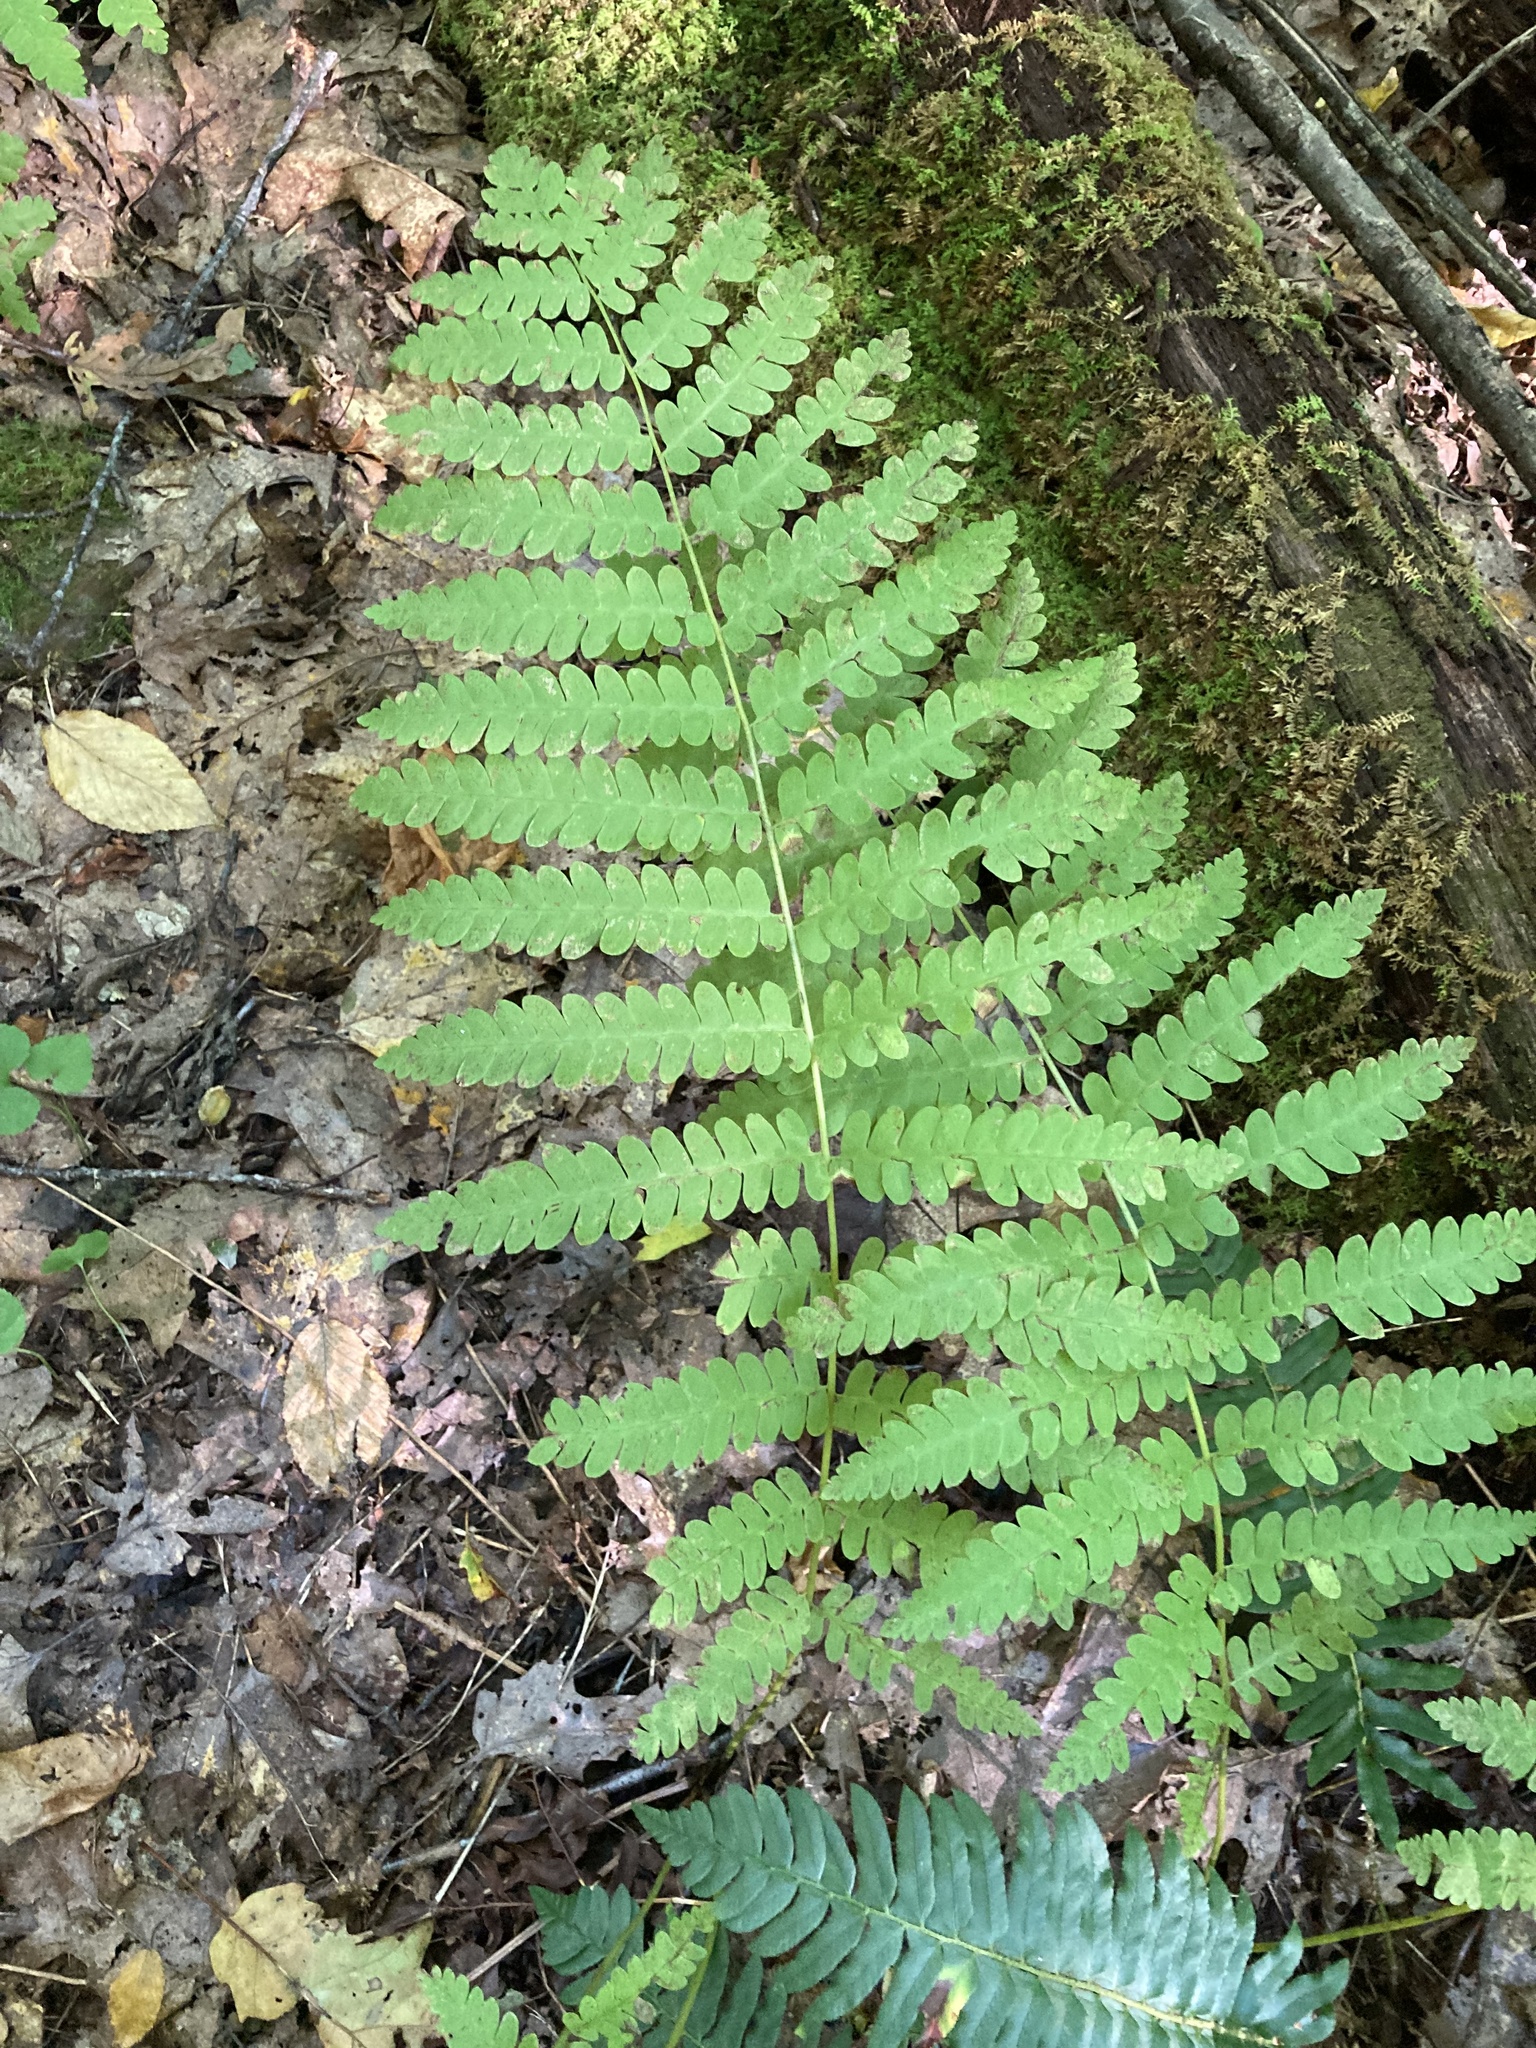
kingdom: Plantae
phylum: Tracheophyta
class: Polypodiopsida
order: Osmundales
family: Osmundaceae
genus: Claytosmunda
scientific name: Claytosmunda claytoniana
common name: Clayton's fern
